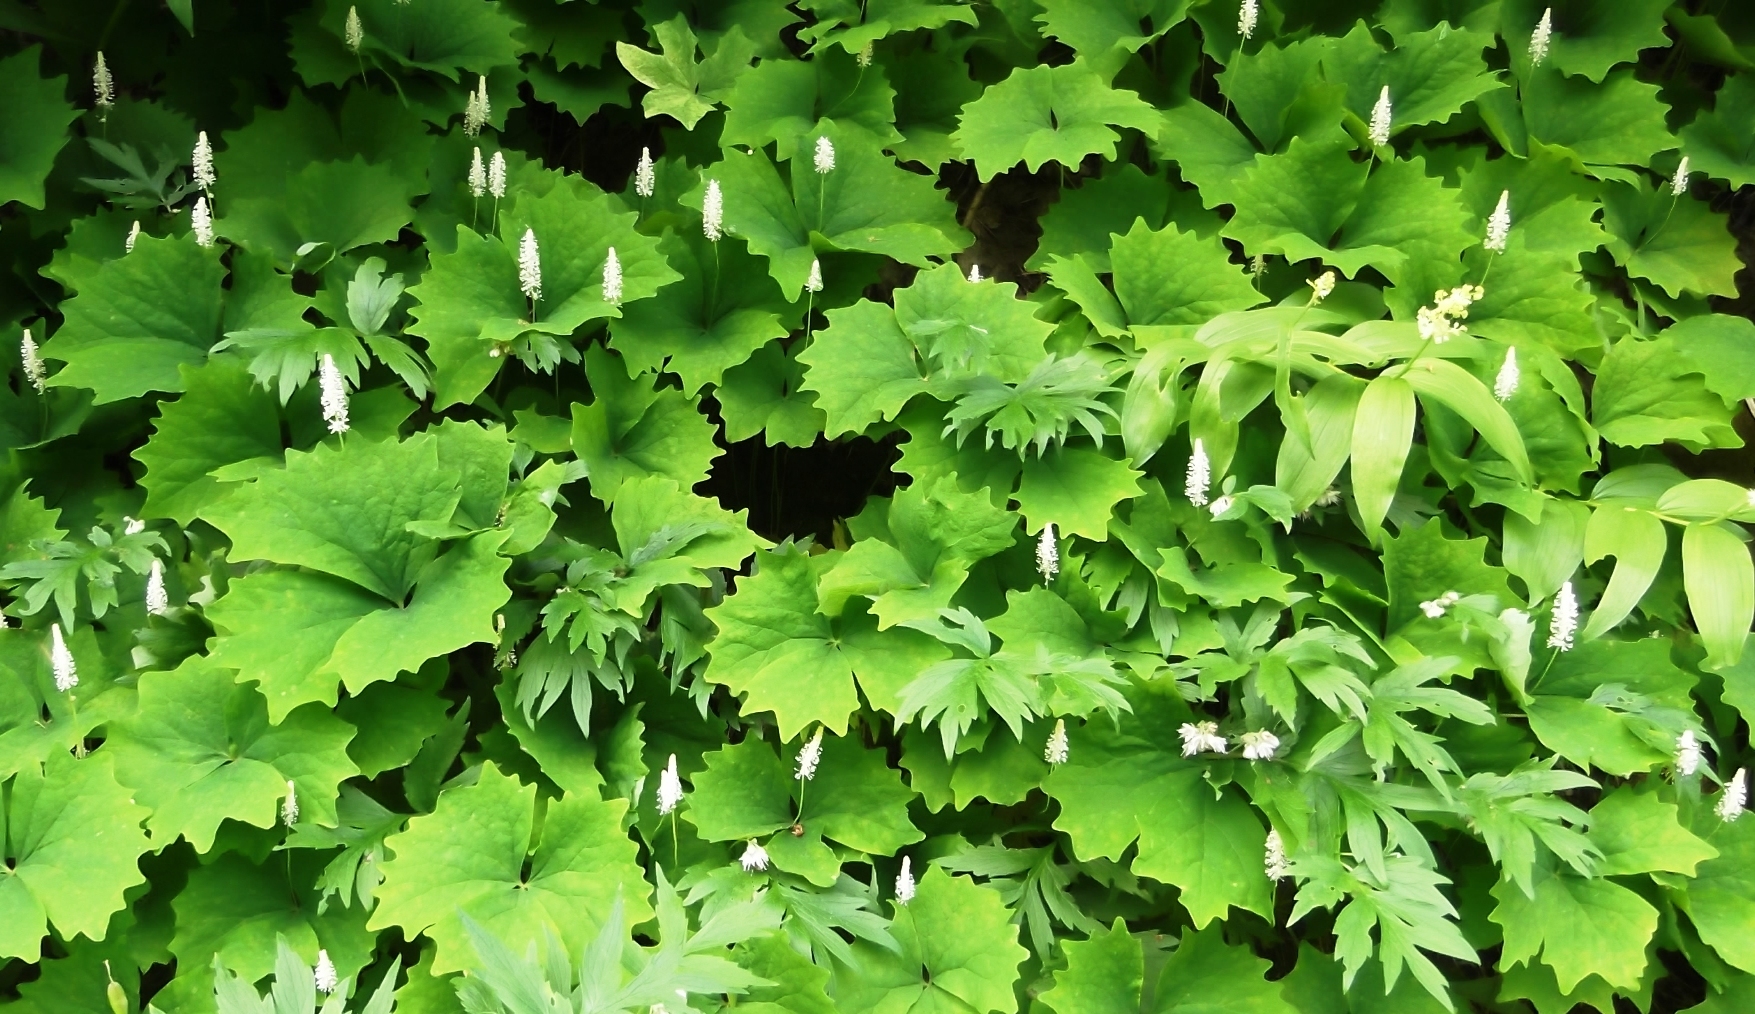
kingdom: Plantae
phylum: Tracheophyta
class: Magnoliopsida
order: Ranunculales
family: Berberidaceae
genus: Achlys
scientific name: Achlys triphylla
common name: Vanilla-leaf
